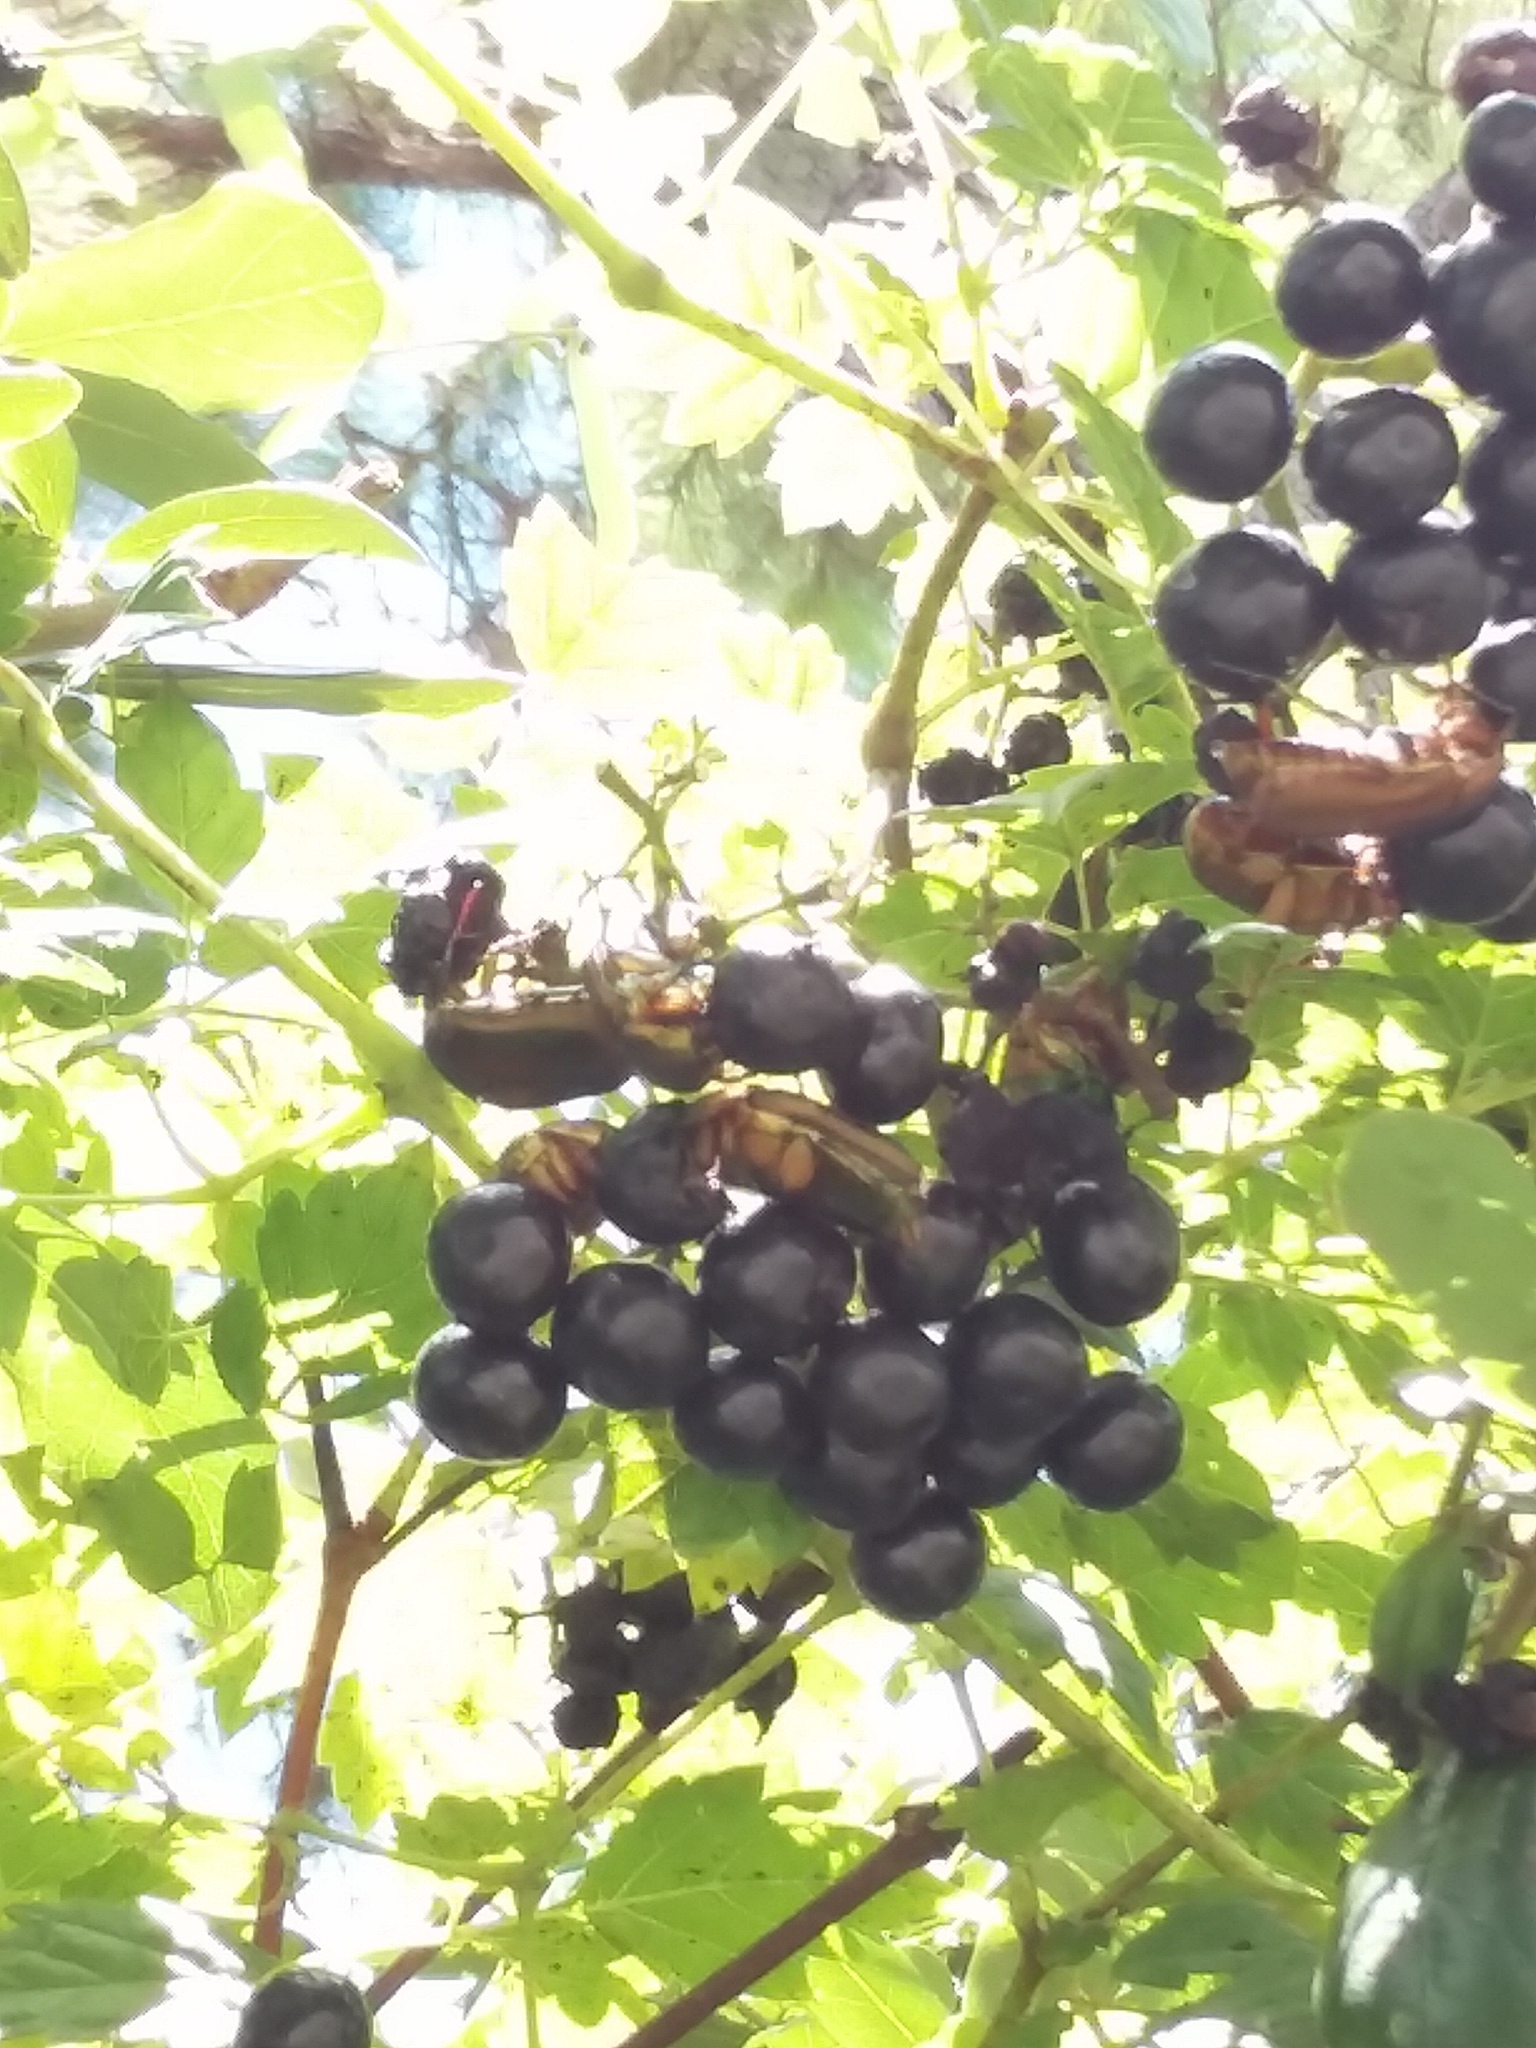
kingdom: Animalia
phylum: Arthropoda
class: Insecta
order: Coleoptera
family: Scarabaeidae
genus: Cotinis
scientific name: Cotinis nitida
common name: Common green june beetle
